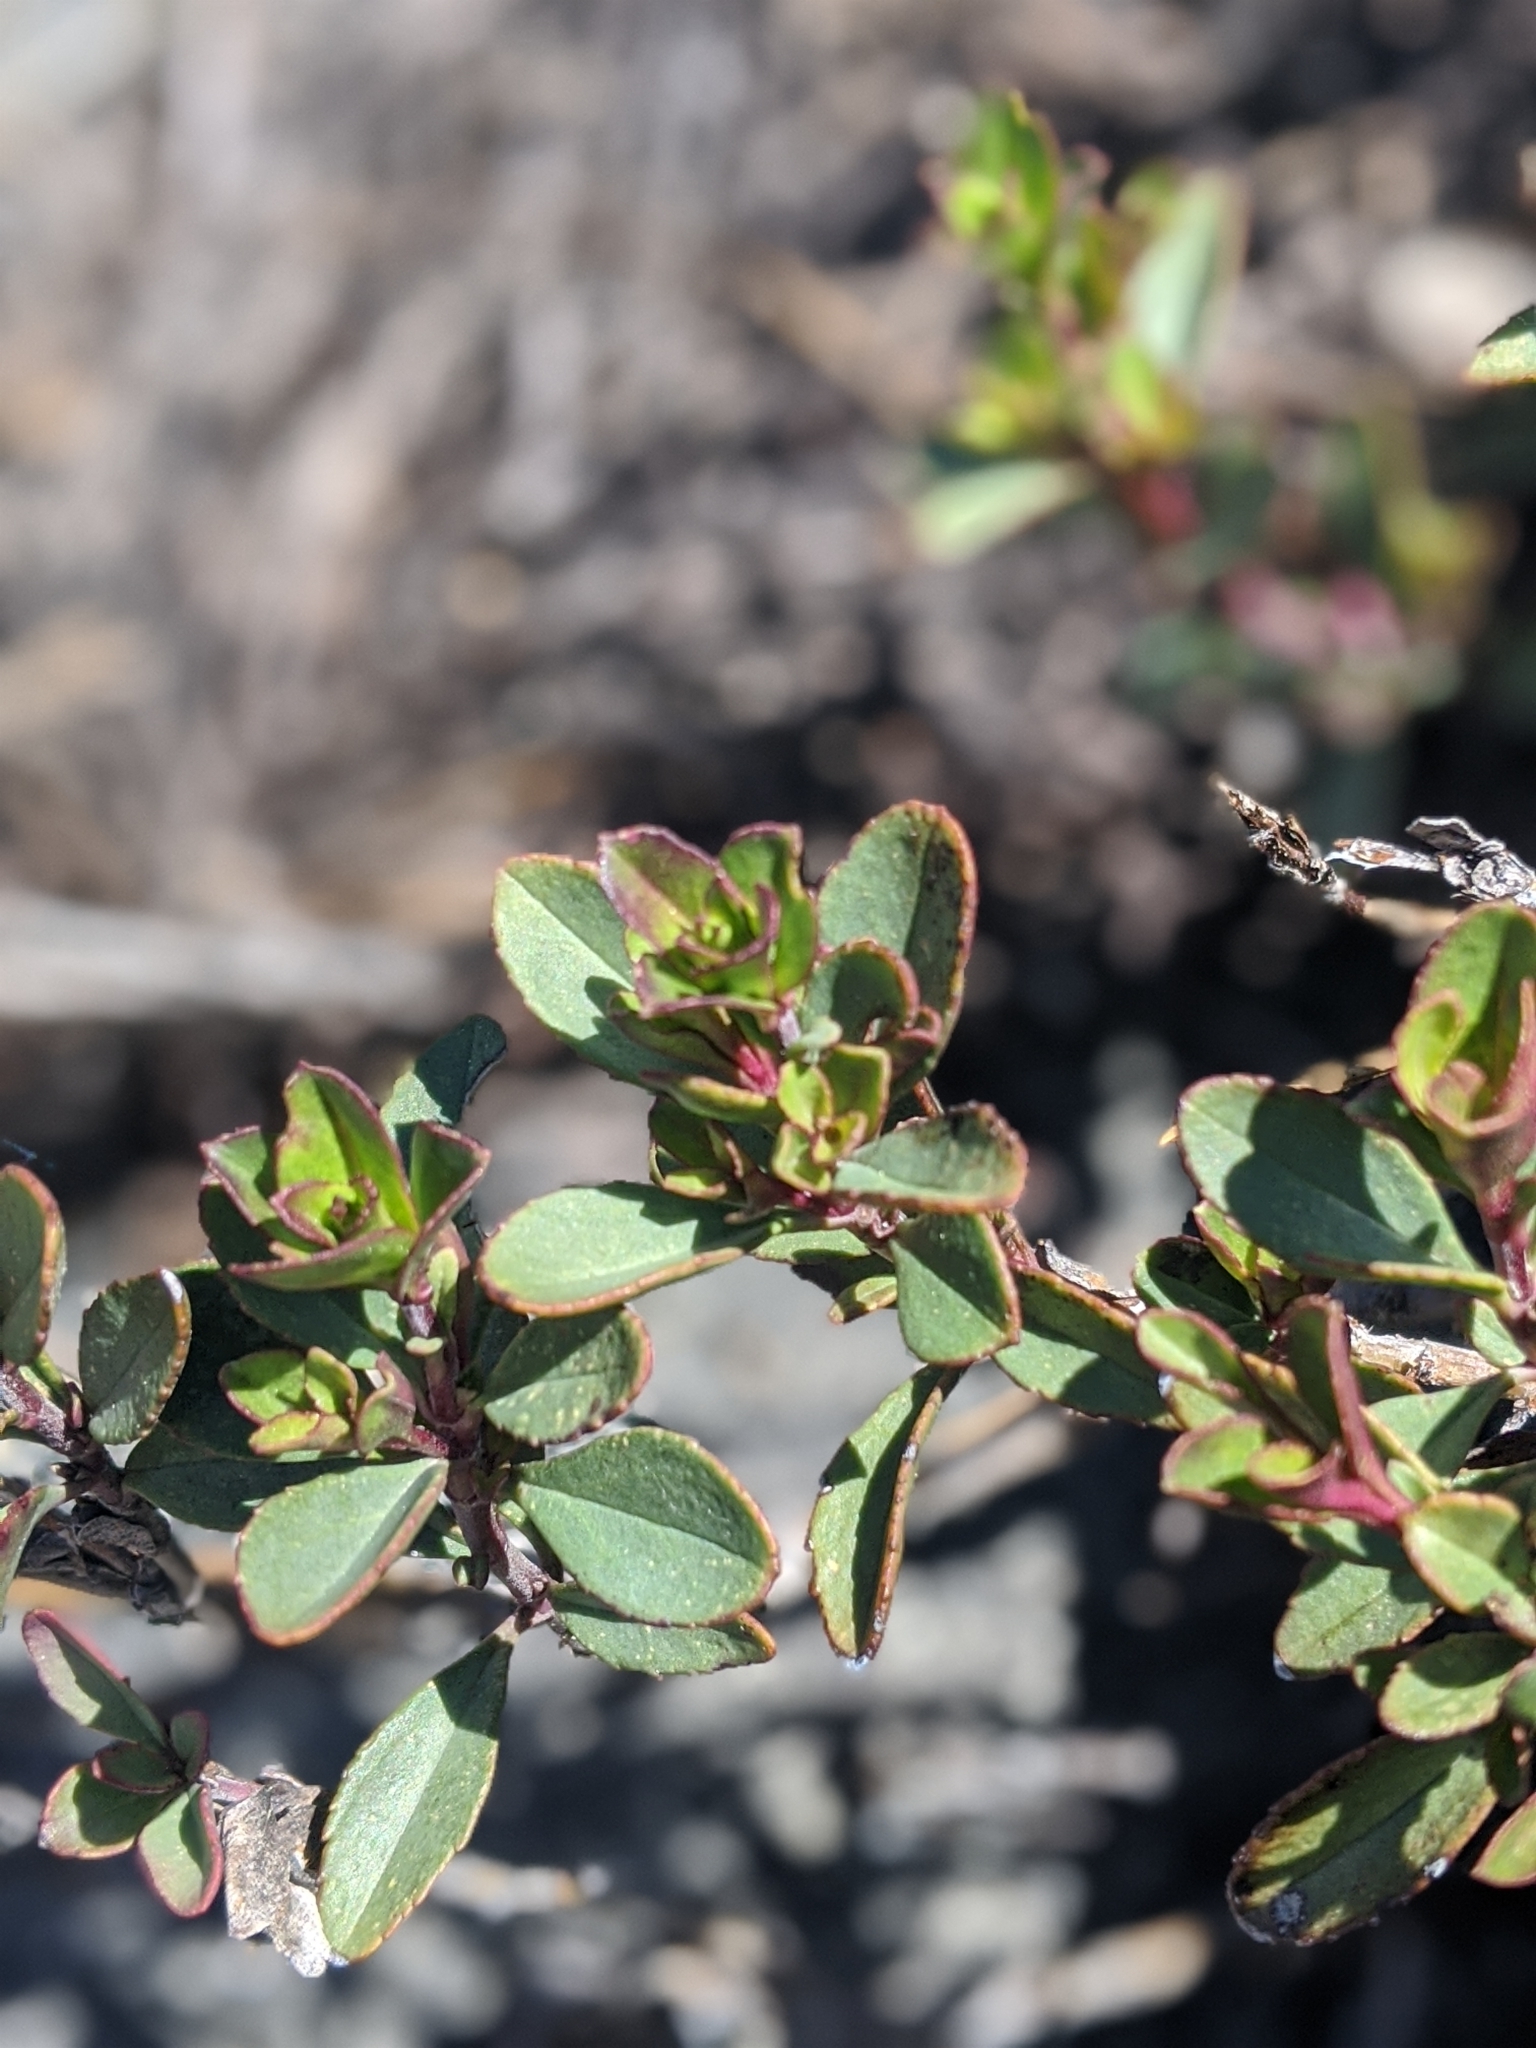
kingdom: Plantae
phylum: Tracheophyta
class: Magnoliopsida
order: Lamiales
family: Plantaginaceae
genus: Penstemon
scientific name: Penstemon newberryi
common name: Mountain-pride
